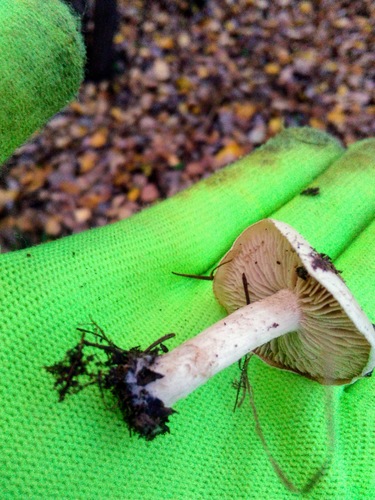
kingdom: Fungi
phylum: Basidiomycota
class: Agaricomycetes
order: Agaricales
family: Hymenogastraceae
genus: Hebeloma
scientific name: Hebeloma
